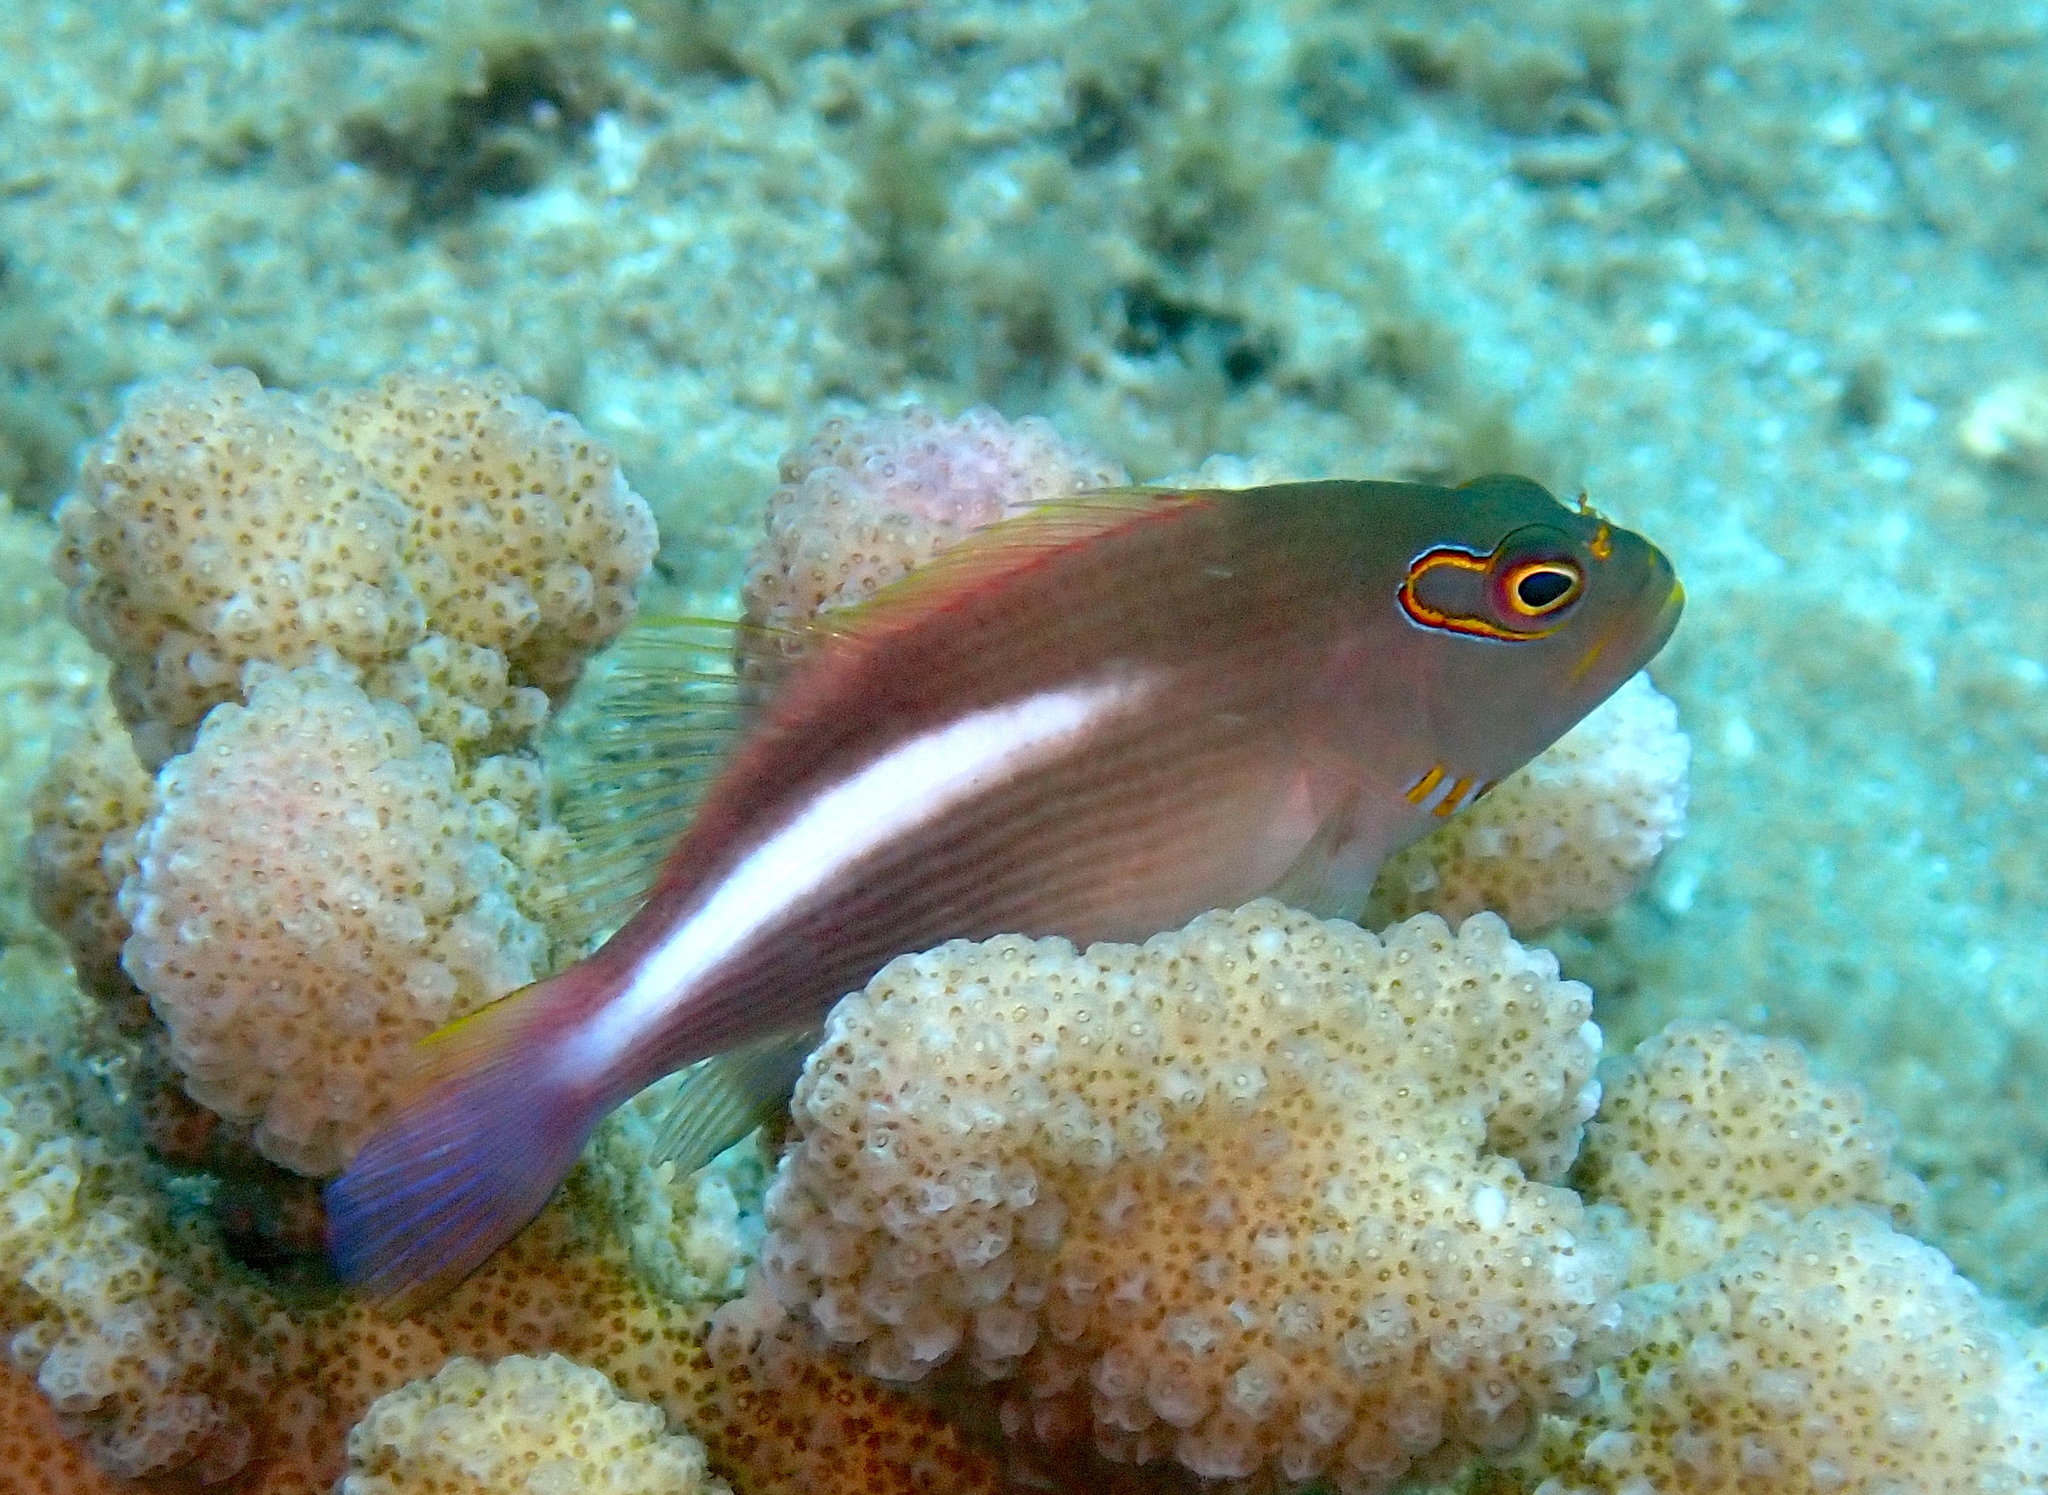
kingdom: Animalia
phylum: Chordata
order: Perciformes
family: Cirrhitidae
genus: Paracirrhites
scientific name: Paracirrhites arcatus
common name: Arc-eye hawkfish
